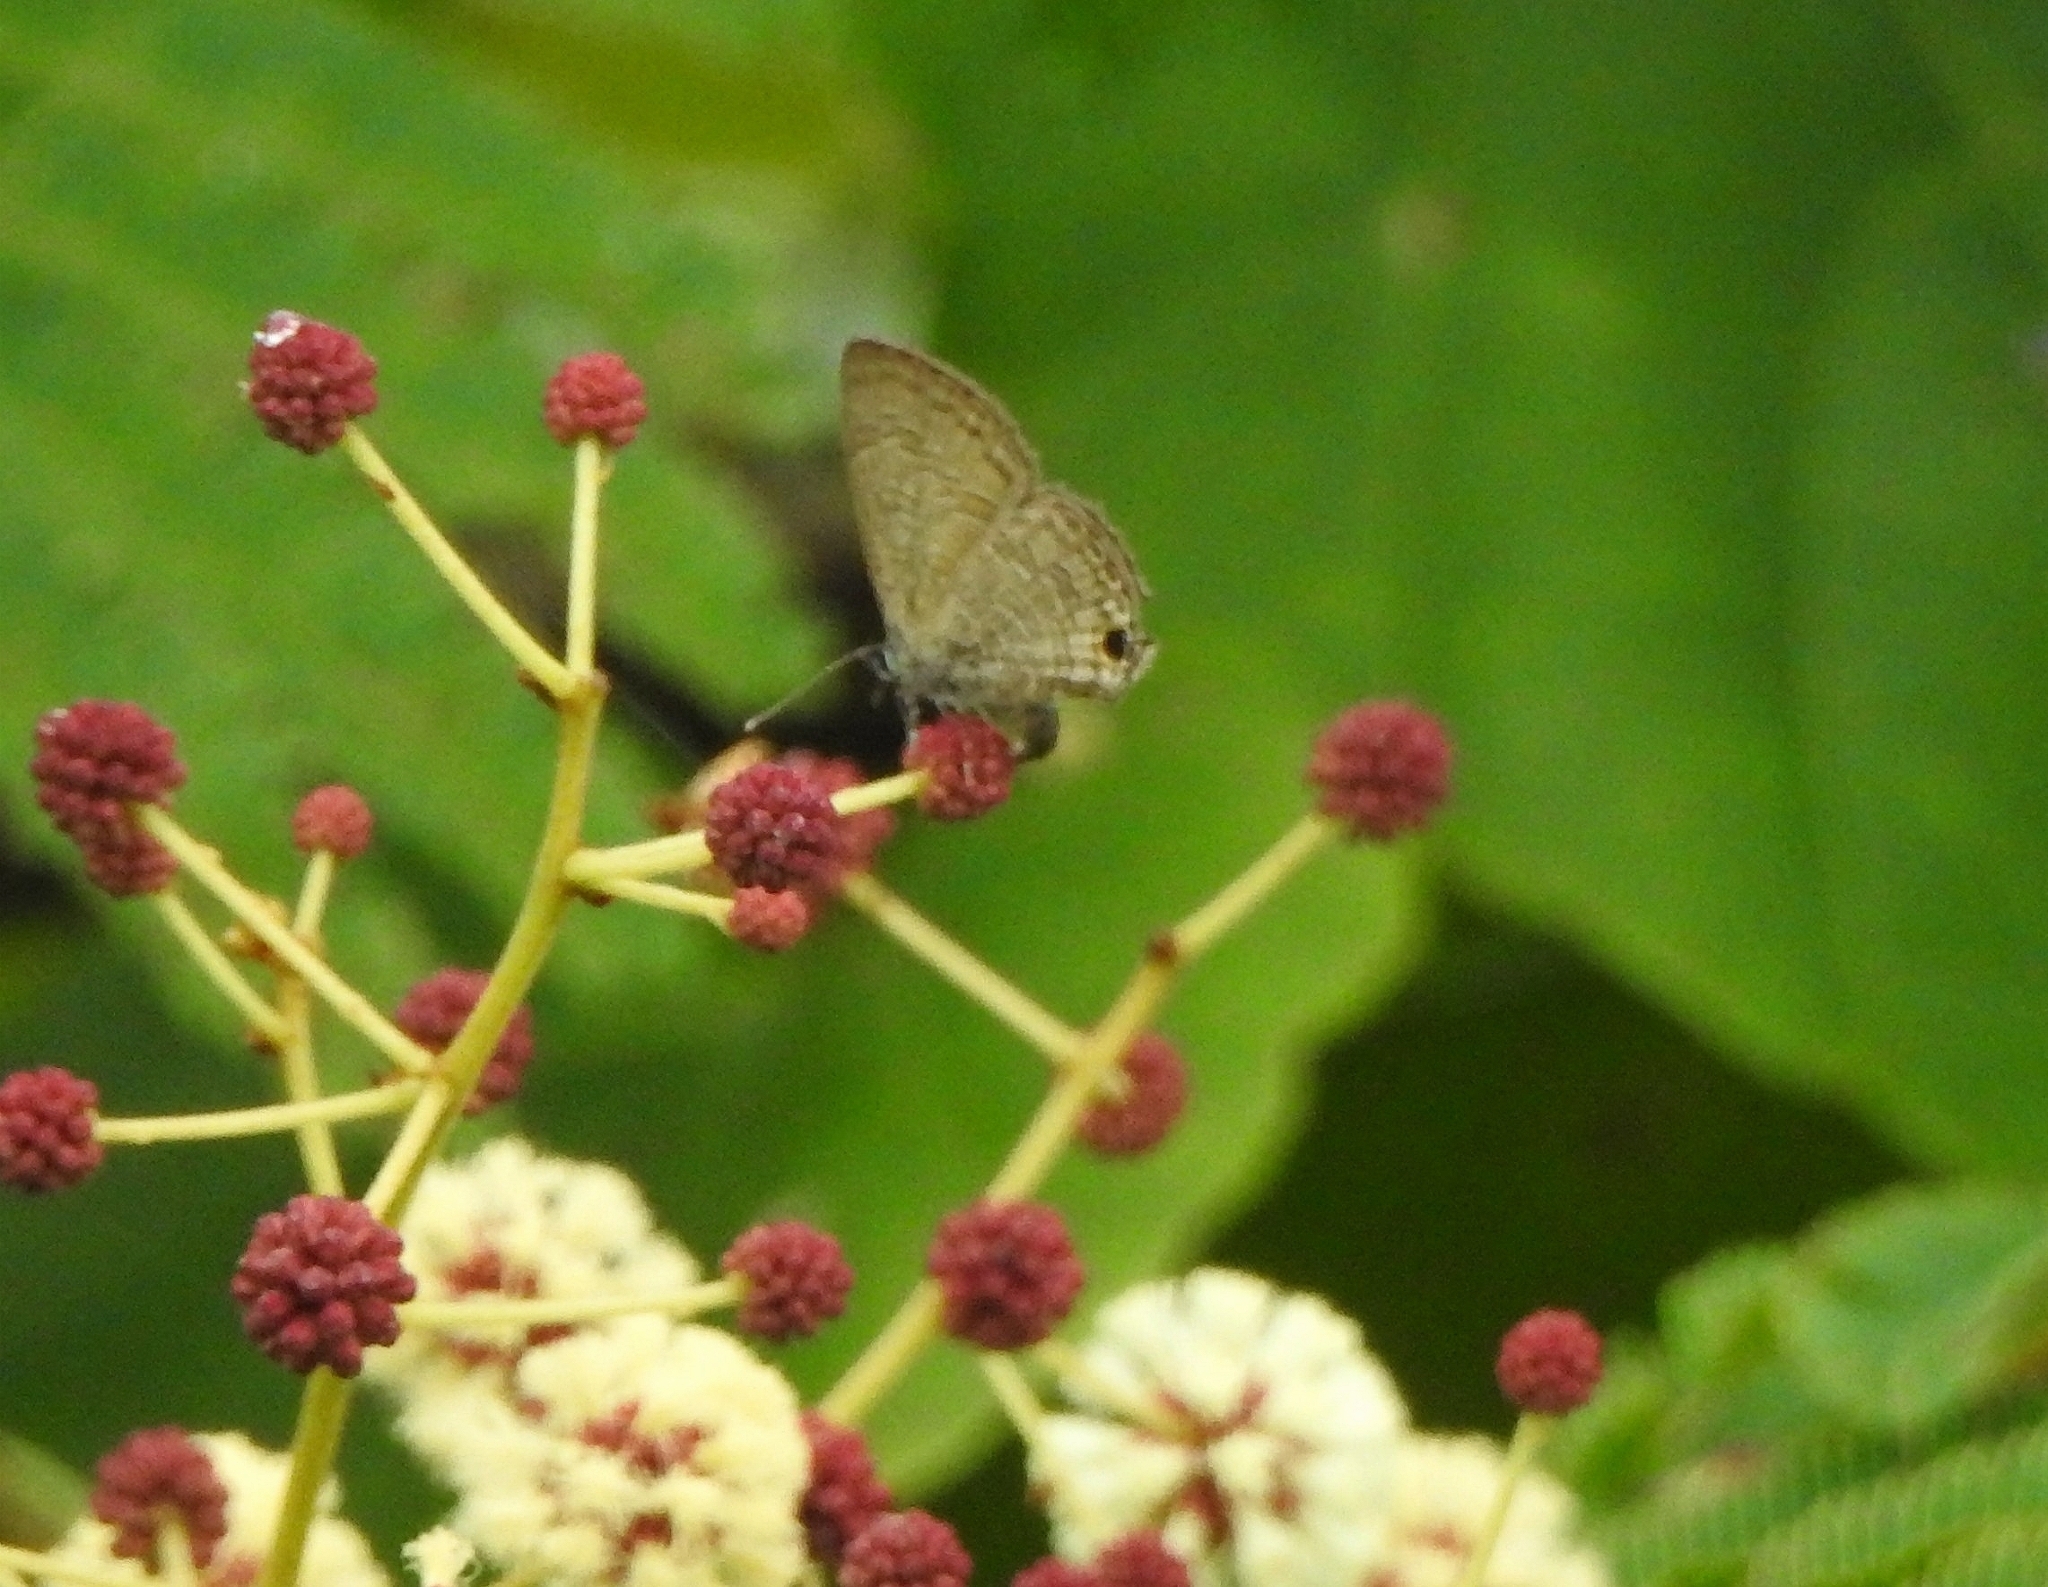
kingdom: Animalia
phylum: Arthropoda
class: Insecta
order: Lepidoptera
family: Lycaenidae
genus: Prosotas
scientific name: Prosotas nora
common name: Common line blue
